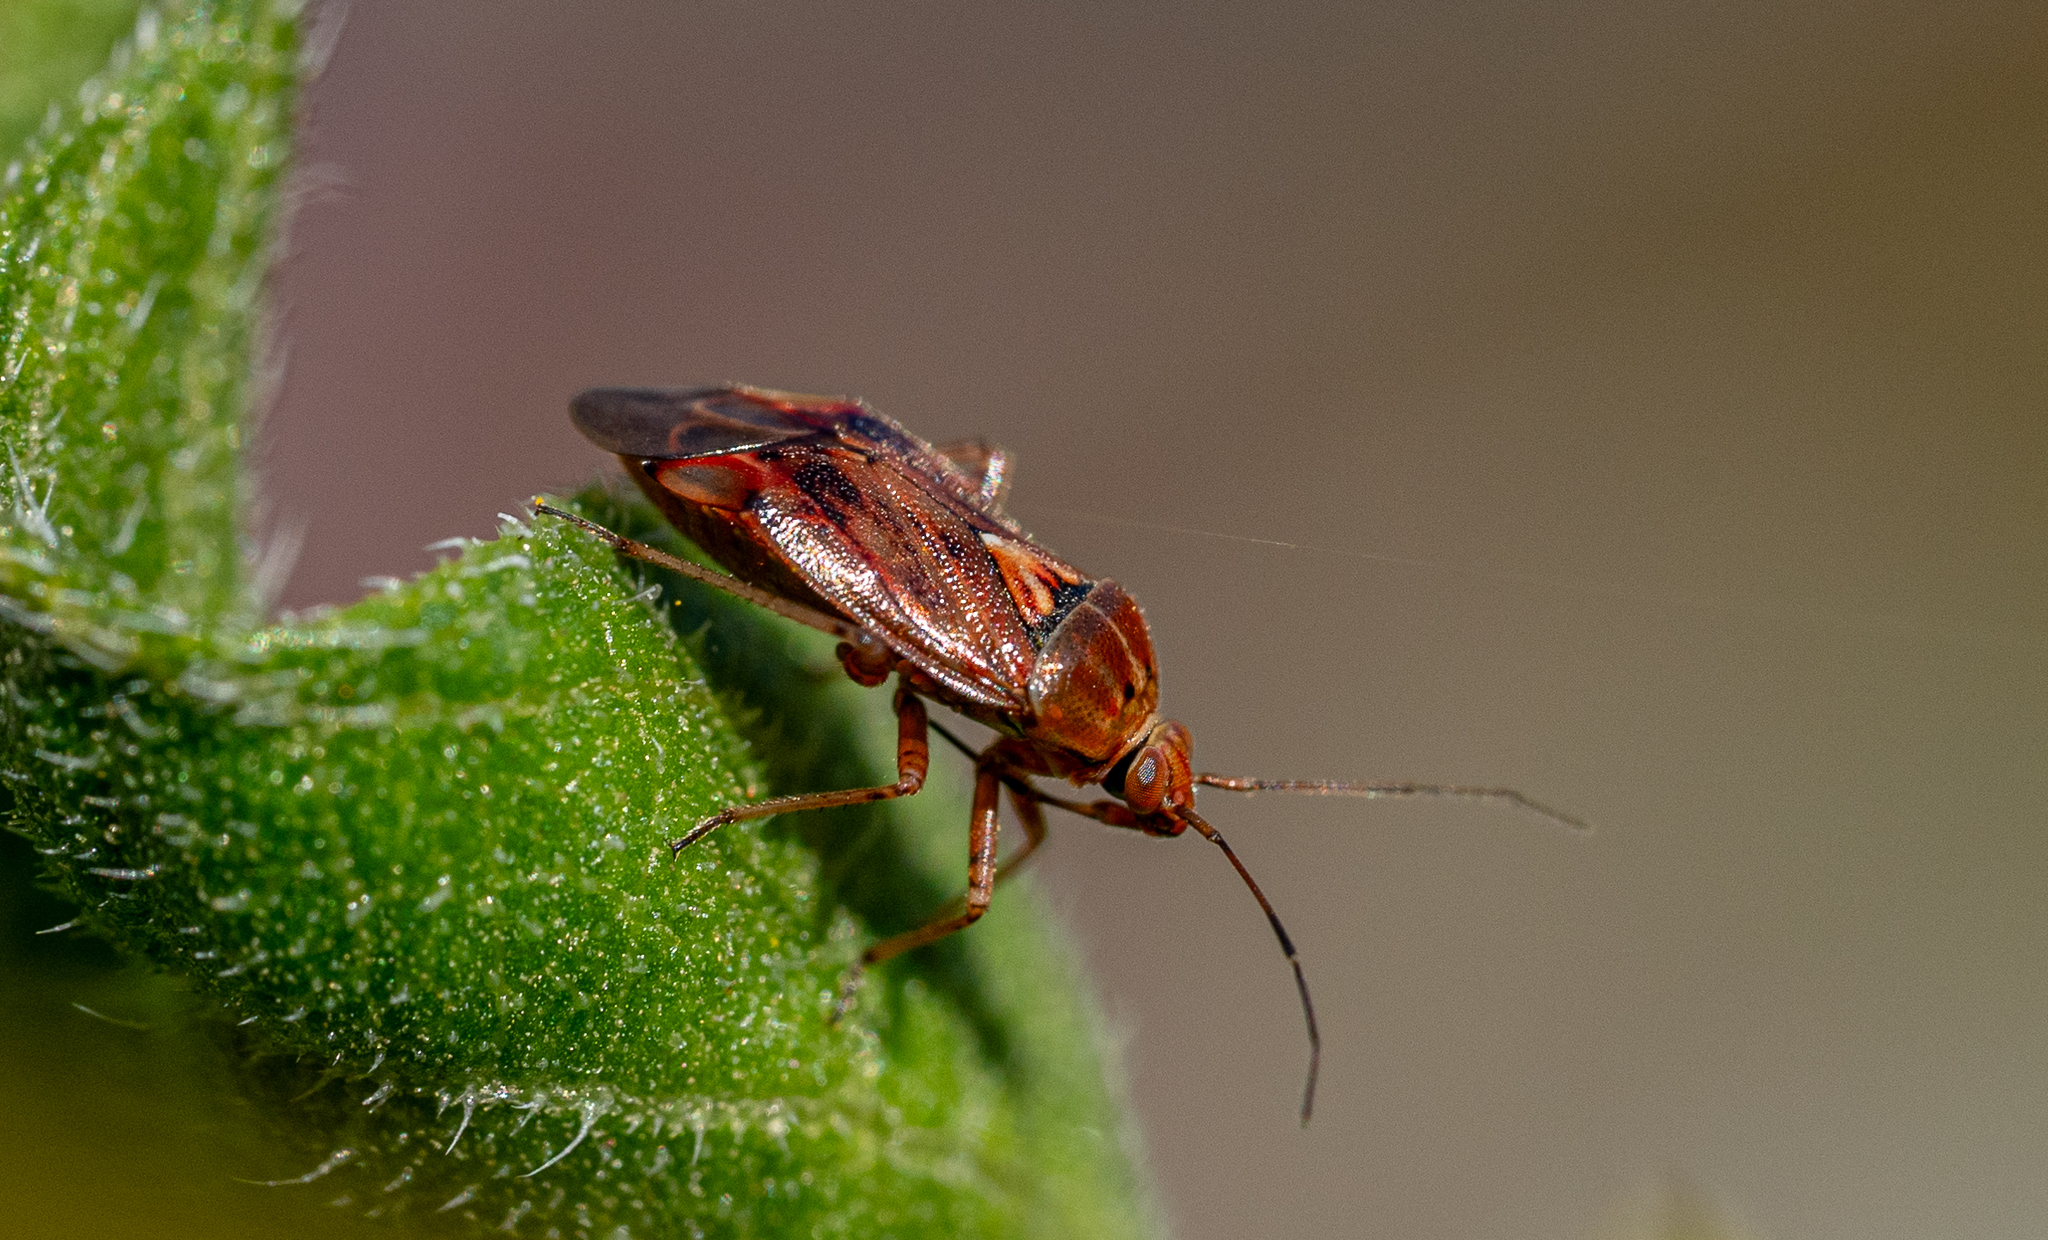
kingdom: Animalia
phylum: Arthropoda
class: Insecta
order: Hemiptera
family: Miridae
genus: Lygus
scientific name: Lygus wagneri
